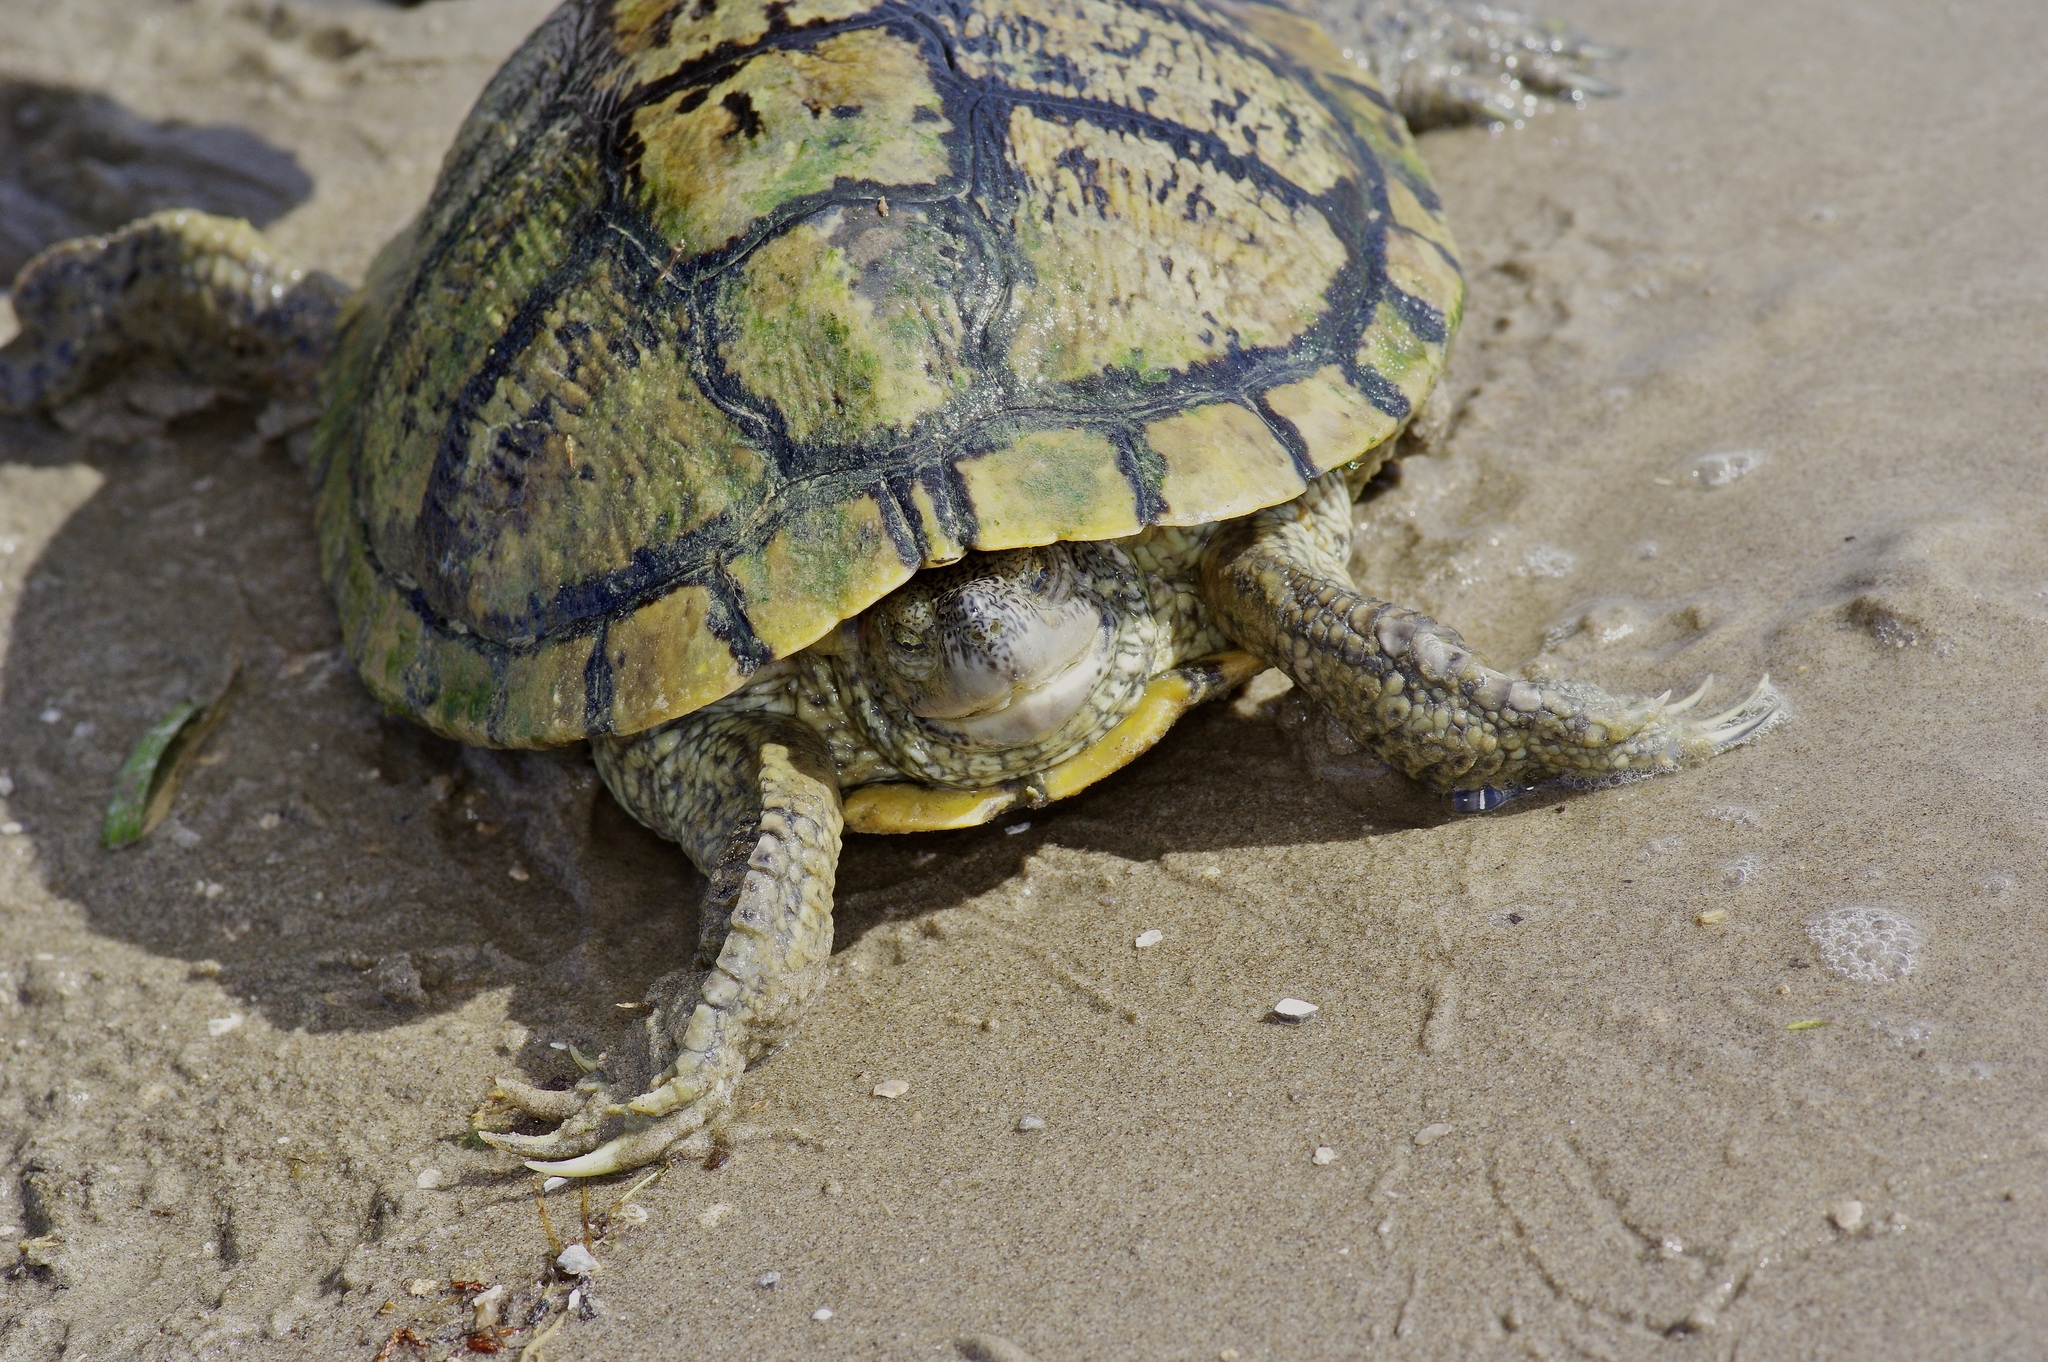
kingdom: Animalia
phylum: Chordata
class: Testudines
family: Emydidae
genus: Trachemys
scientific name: Trachemys scripta
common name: Slider
